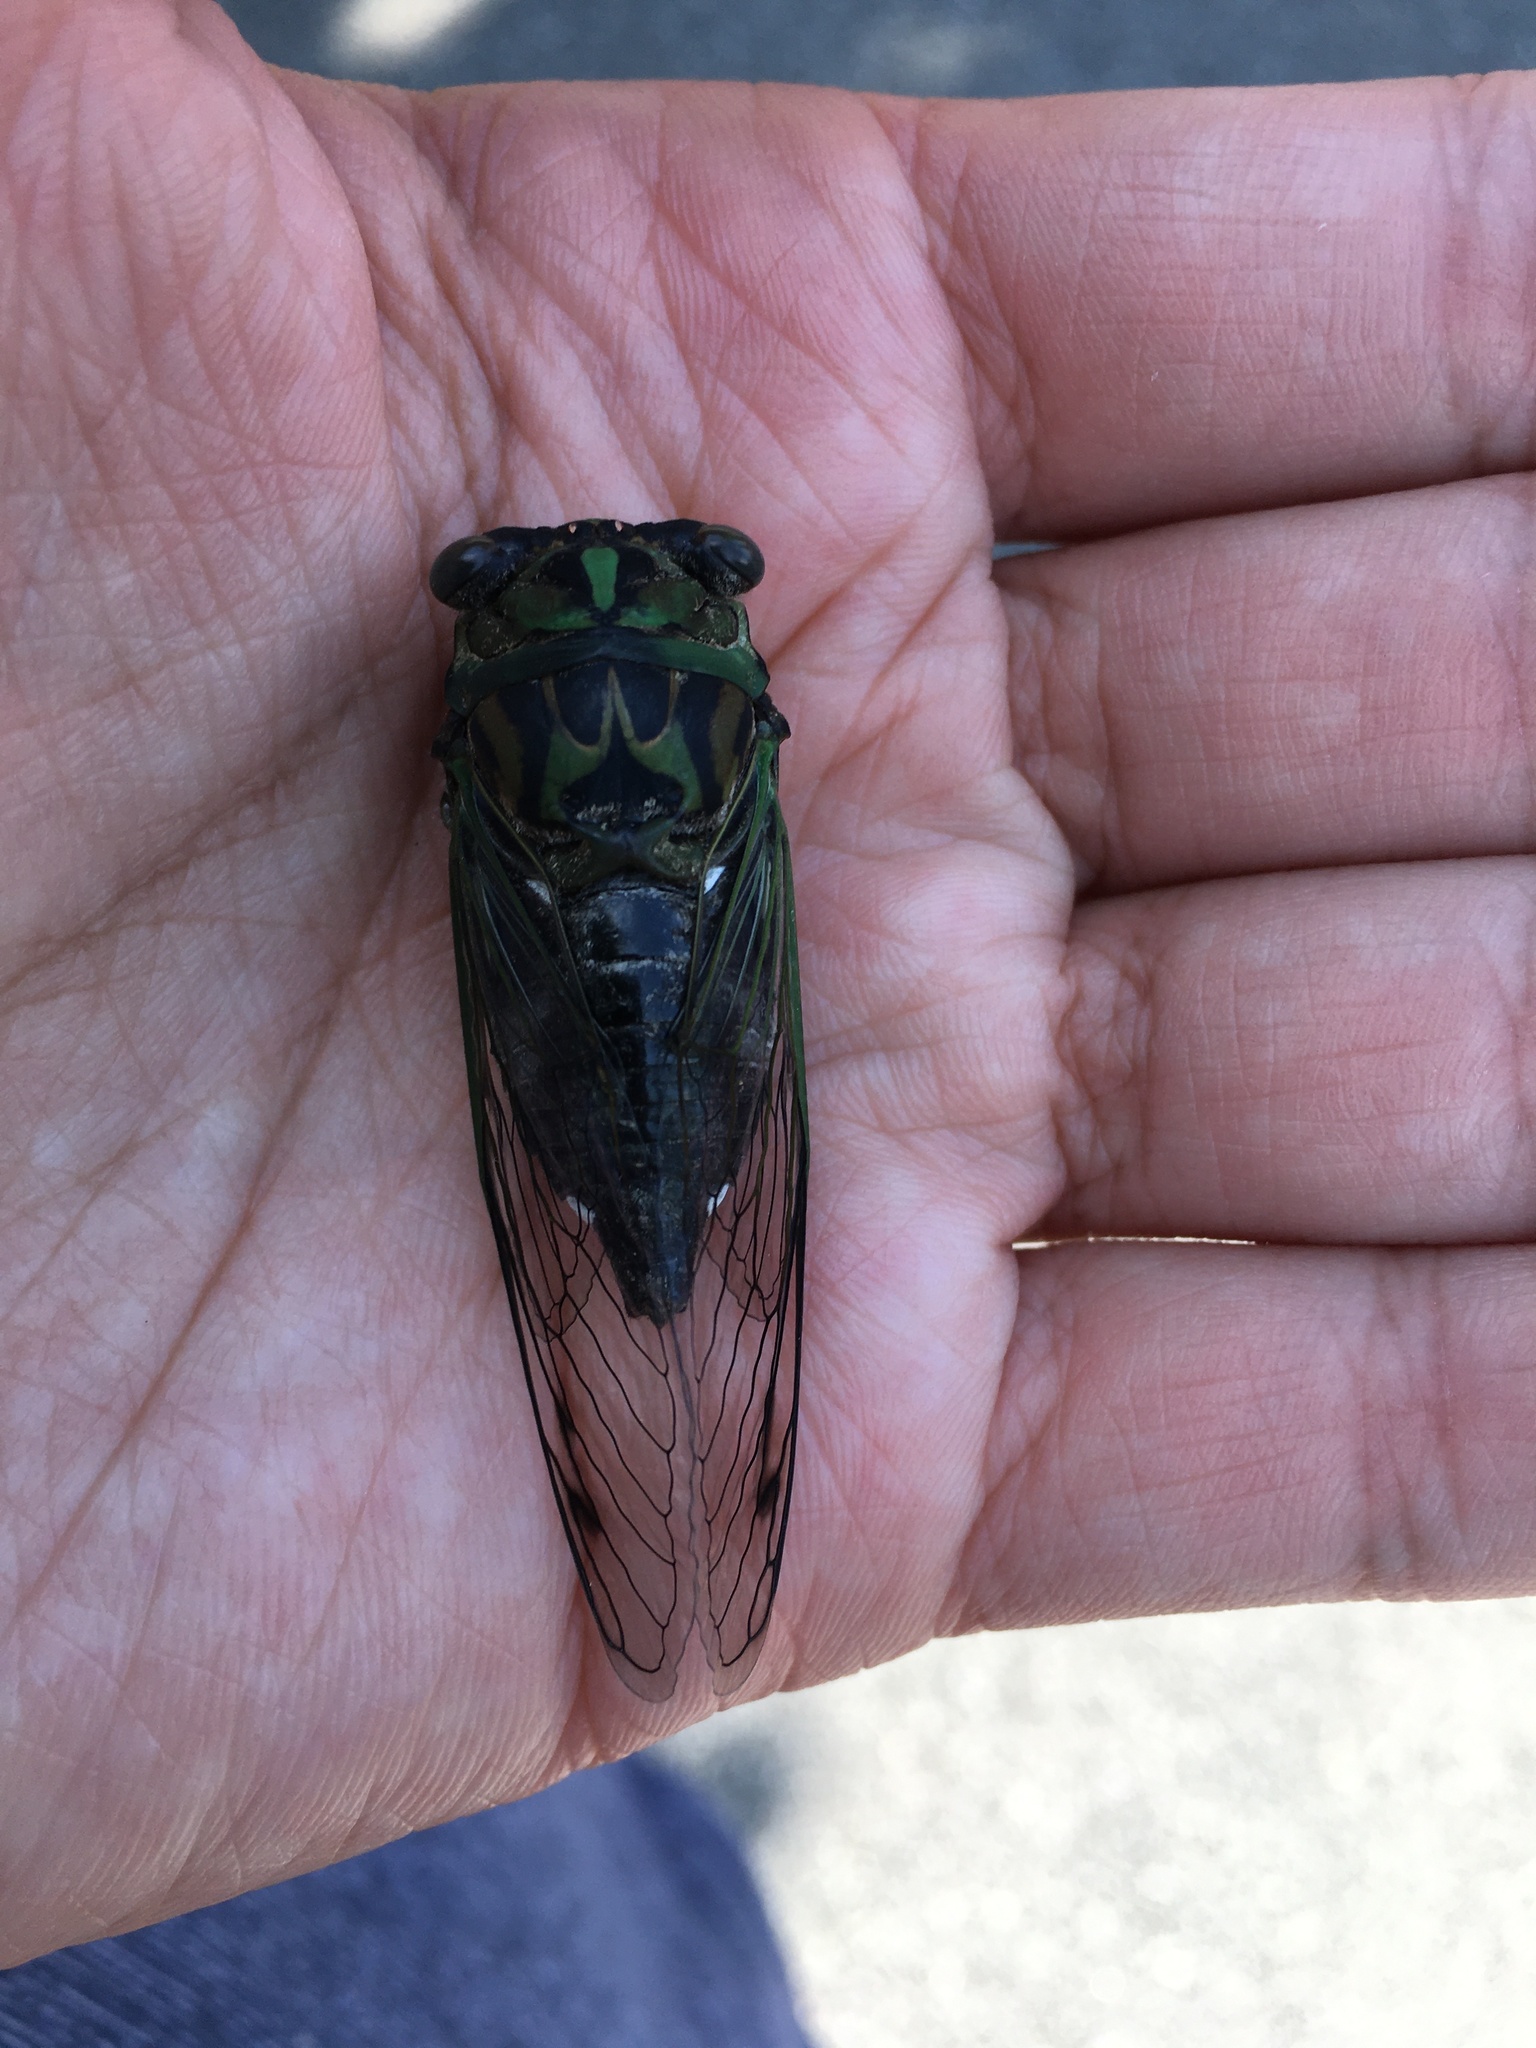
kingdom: Animalia
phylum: Arthropoda
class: Insecta
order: Hemiptera
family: Cicadidae
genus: Neotibicen
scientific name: Neotibicen linnei
